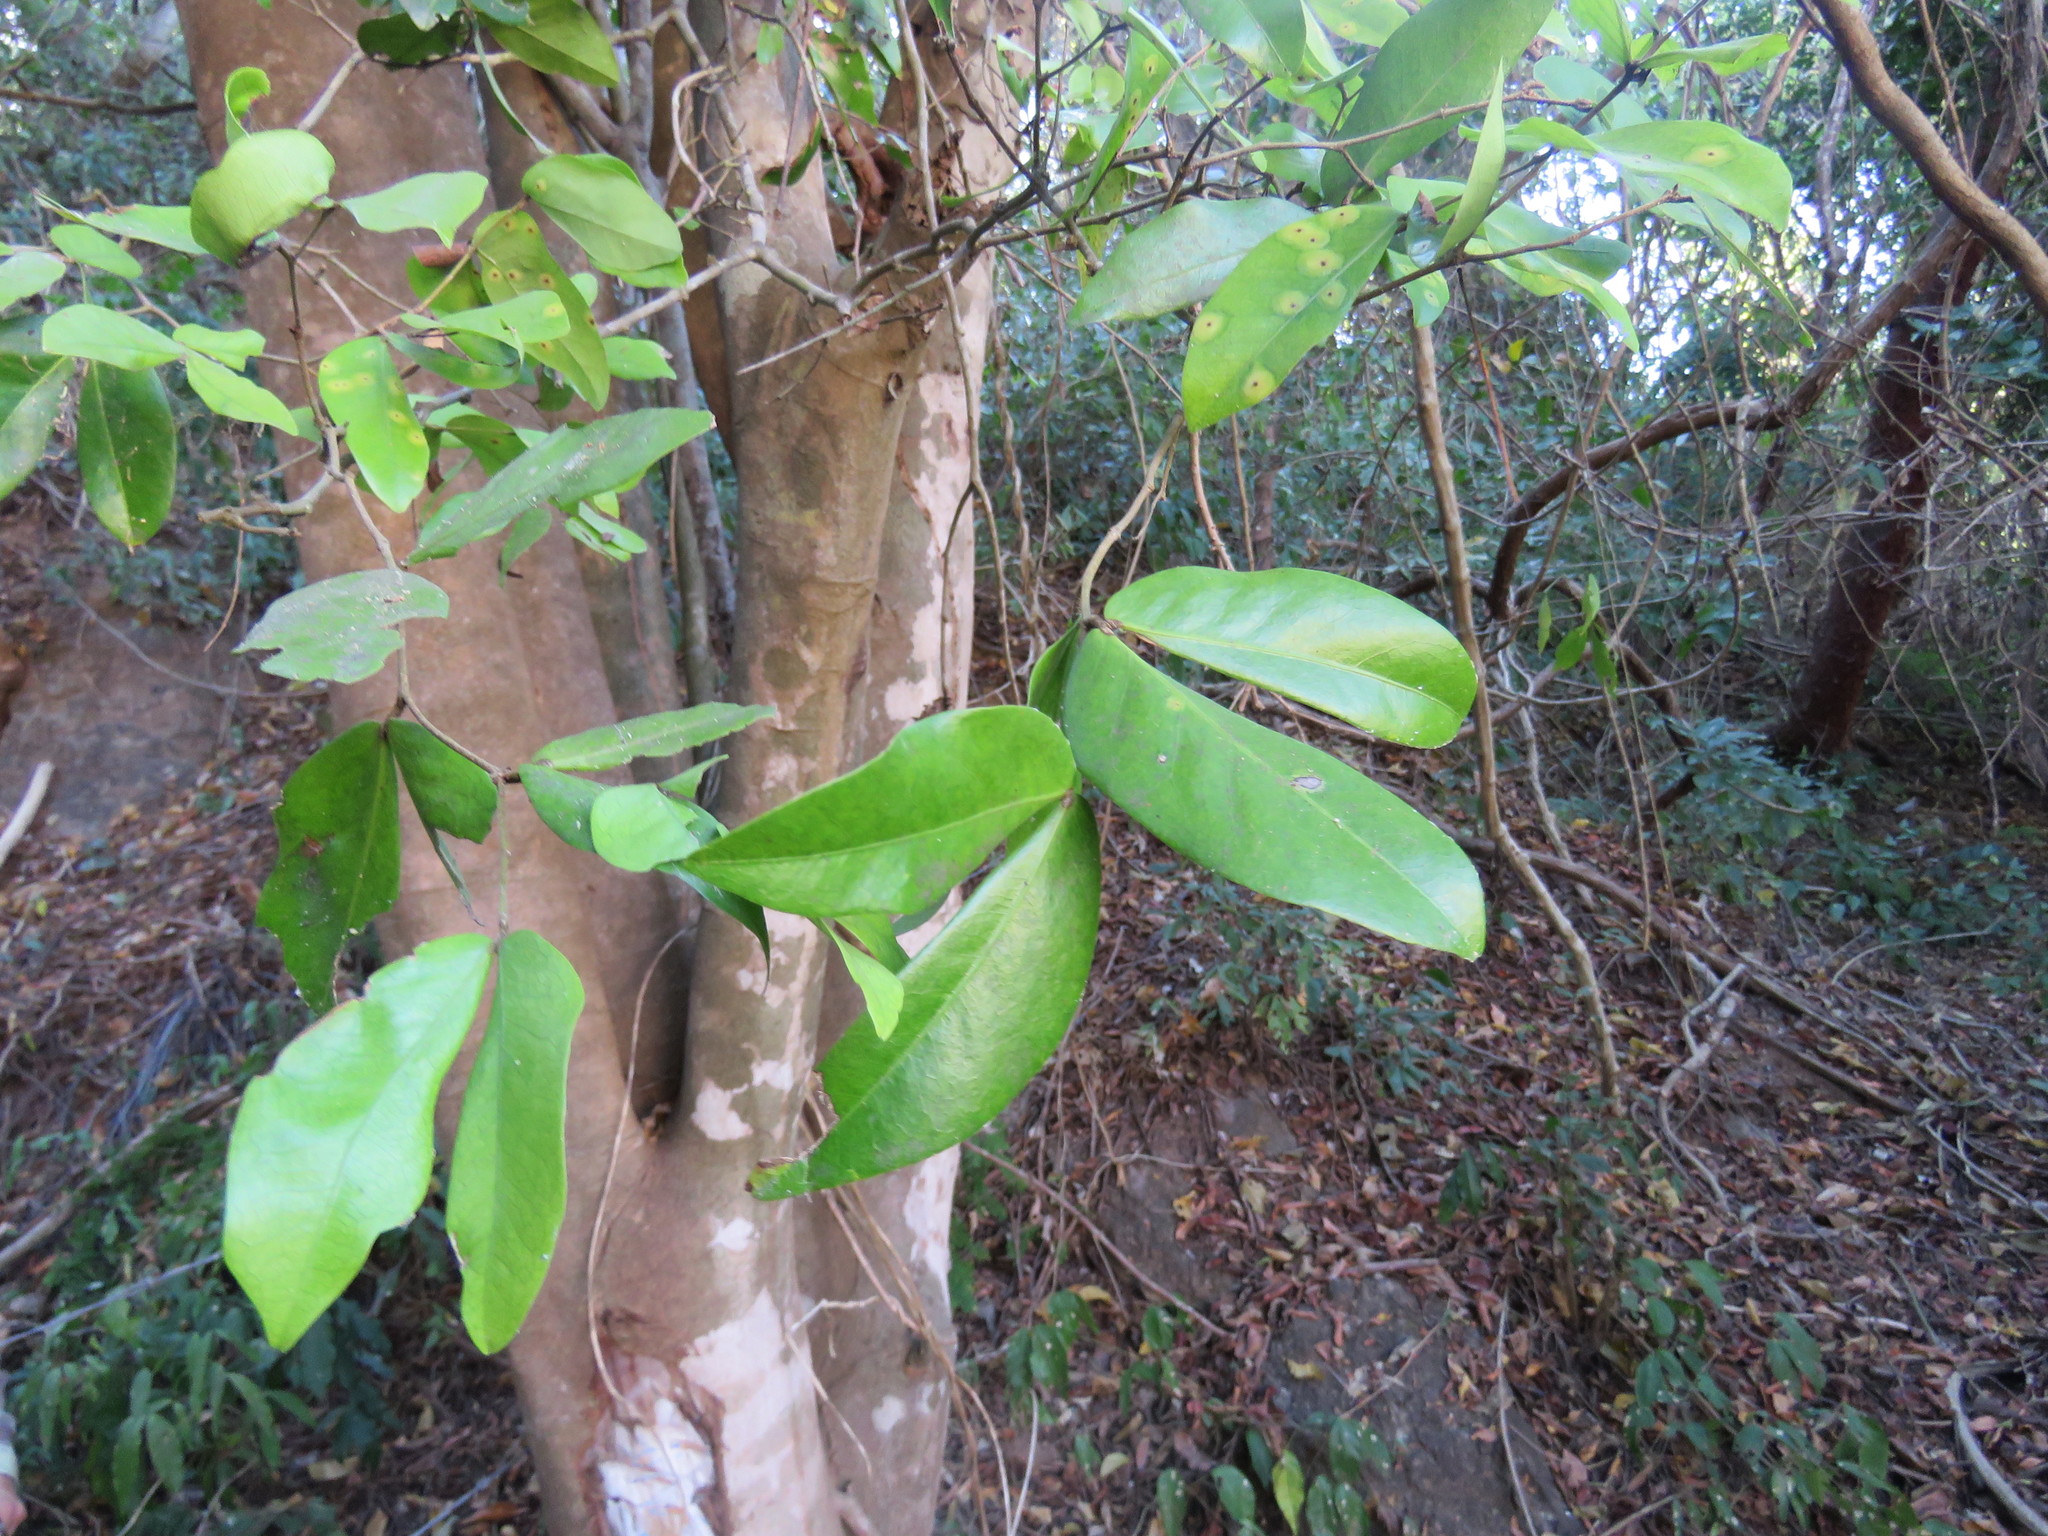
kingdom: Plantae
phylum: Tracheophyta
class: Magnoliopsida
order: Fabales
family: Fabaceae
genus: Hymenaea
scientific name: Hymenaea courbaril
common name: Brazilian copal
